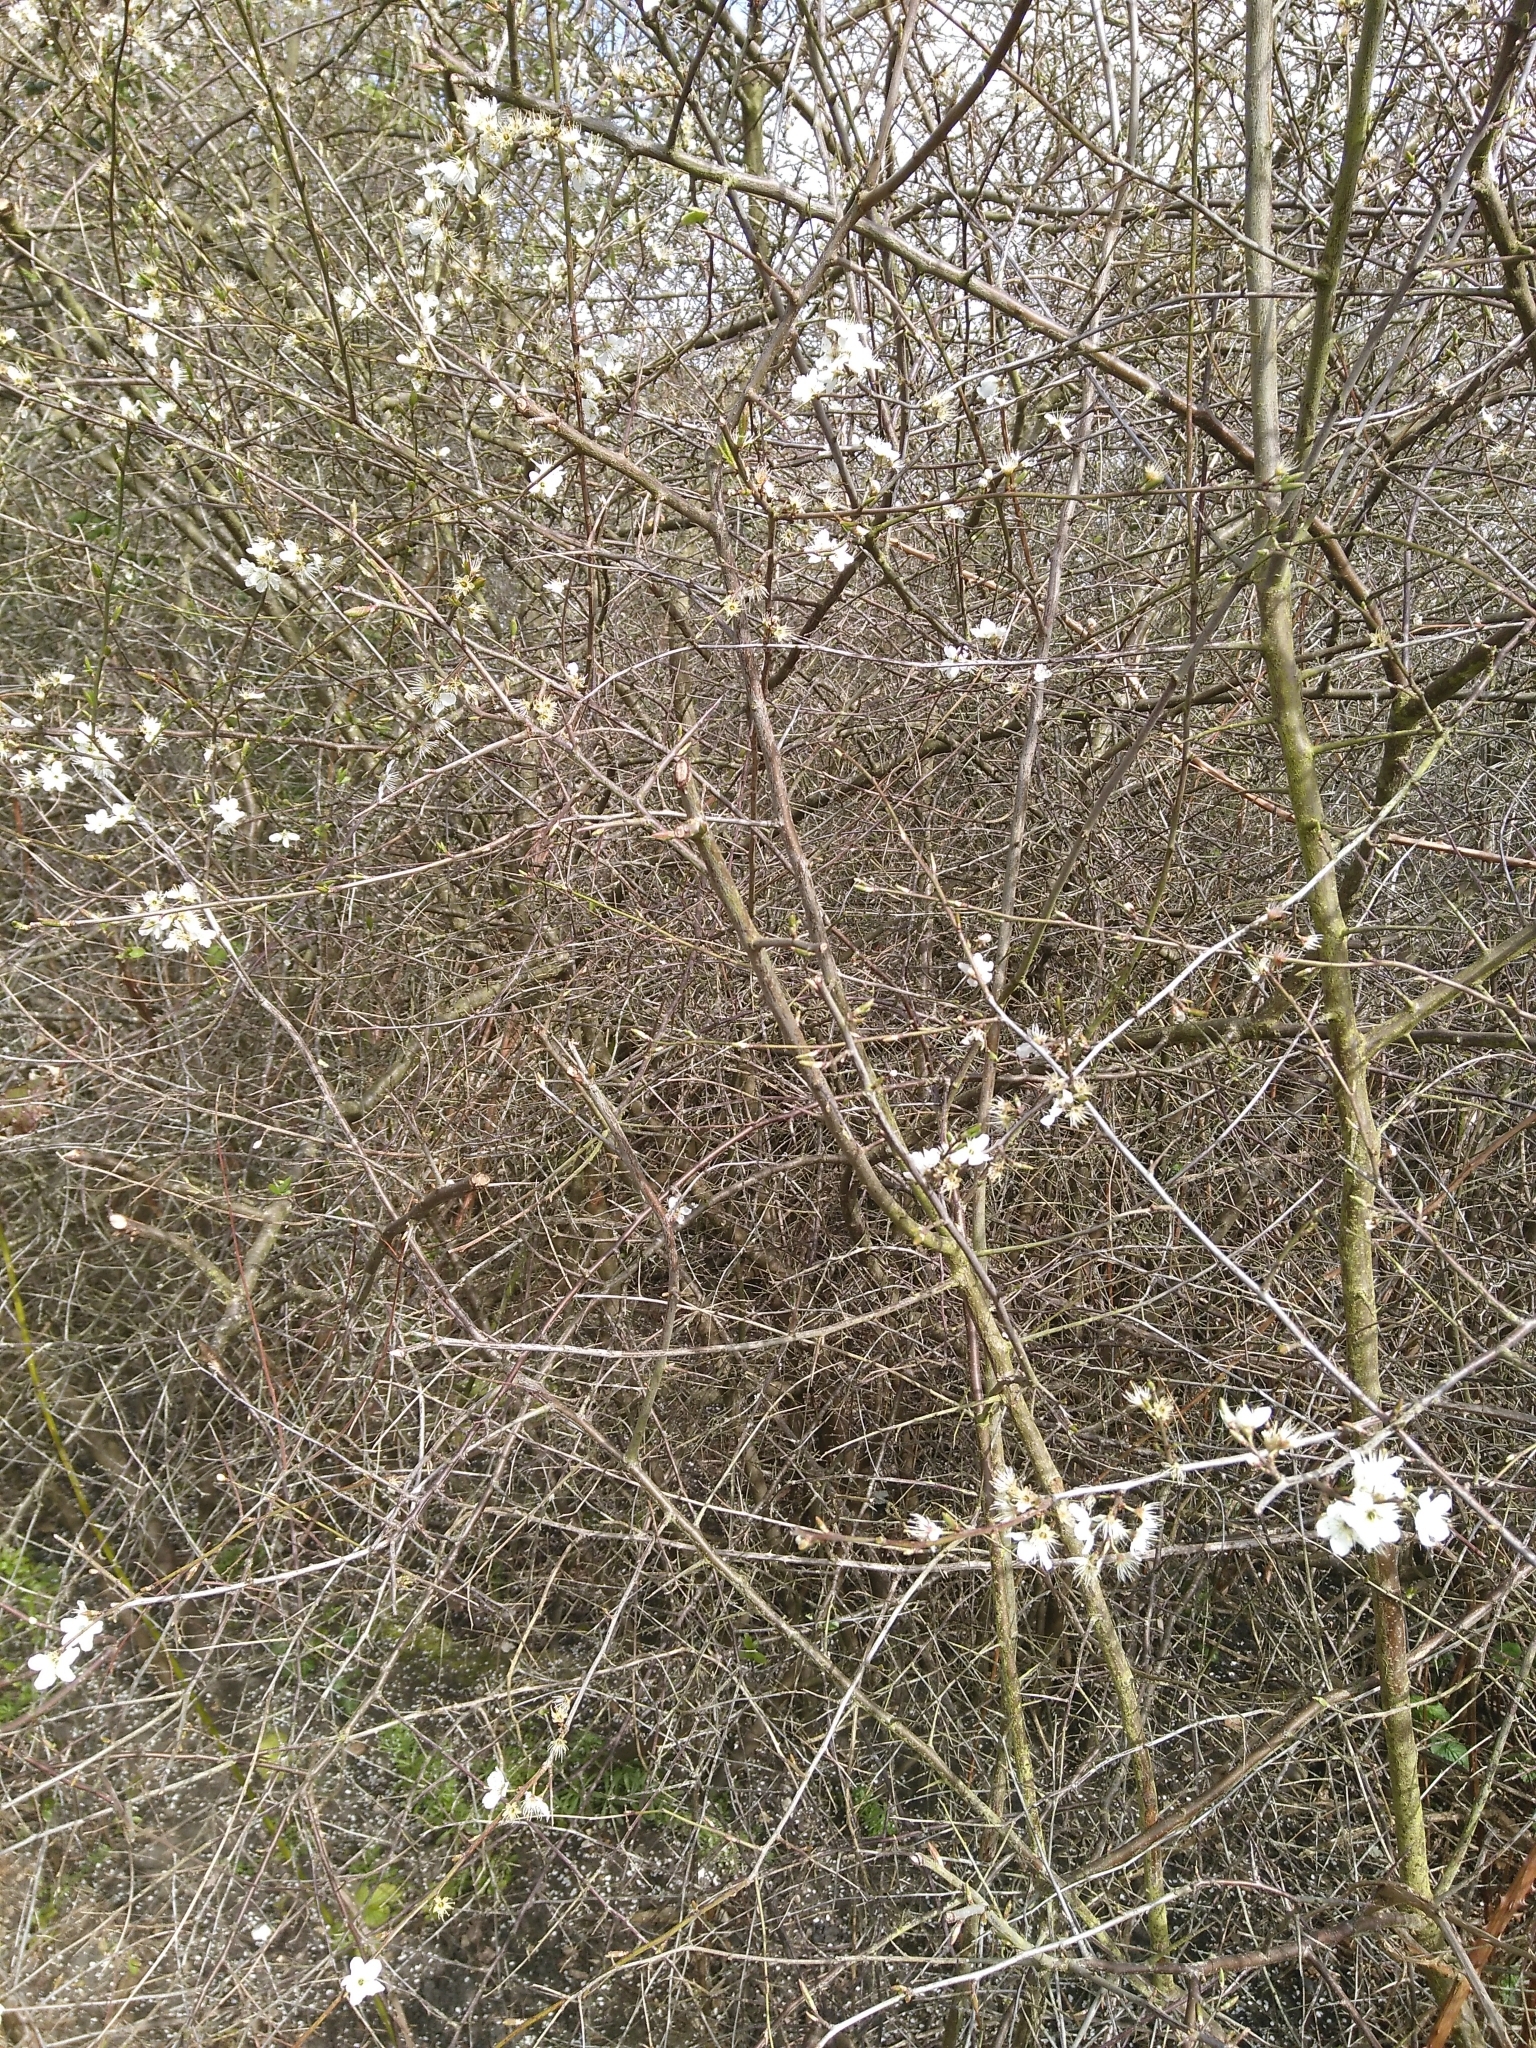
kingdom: Plantae
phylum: Tracheophyta
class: Magnoliopsida
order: Rosales
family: Rosaceae
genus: Prunus
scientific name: Prunus spinosa
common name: Blackthorn
